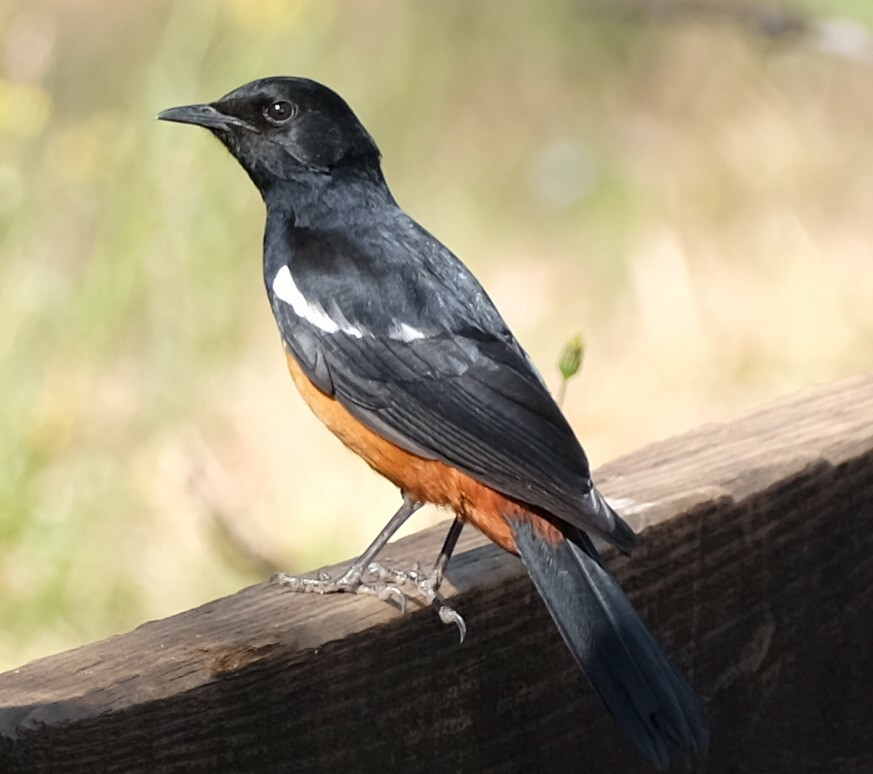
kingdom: Animalia
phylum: Chordata
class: Aves
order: Passeriformes
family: Muscicapidae
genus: Thamnolaea
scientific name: Thamnolaea cinnamomeiventris
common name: Mocking cliff chat
